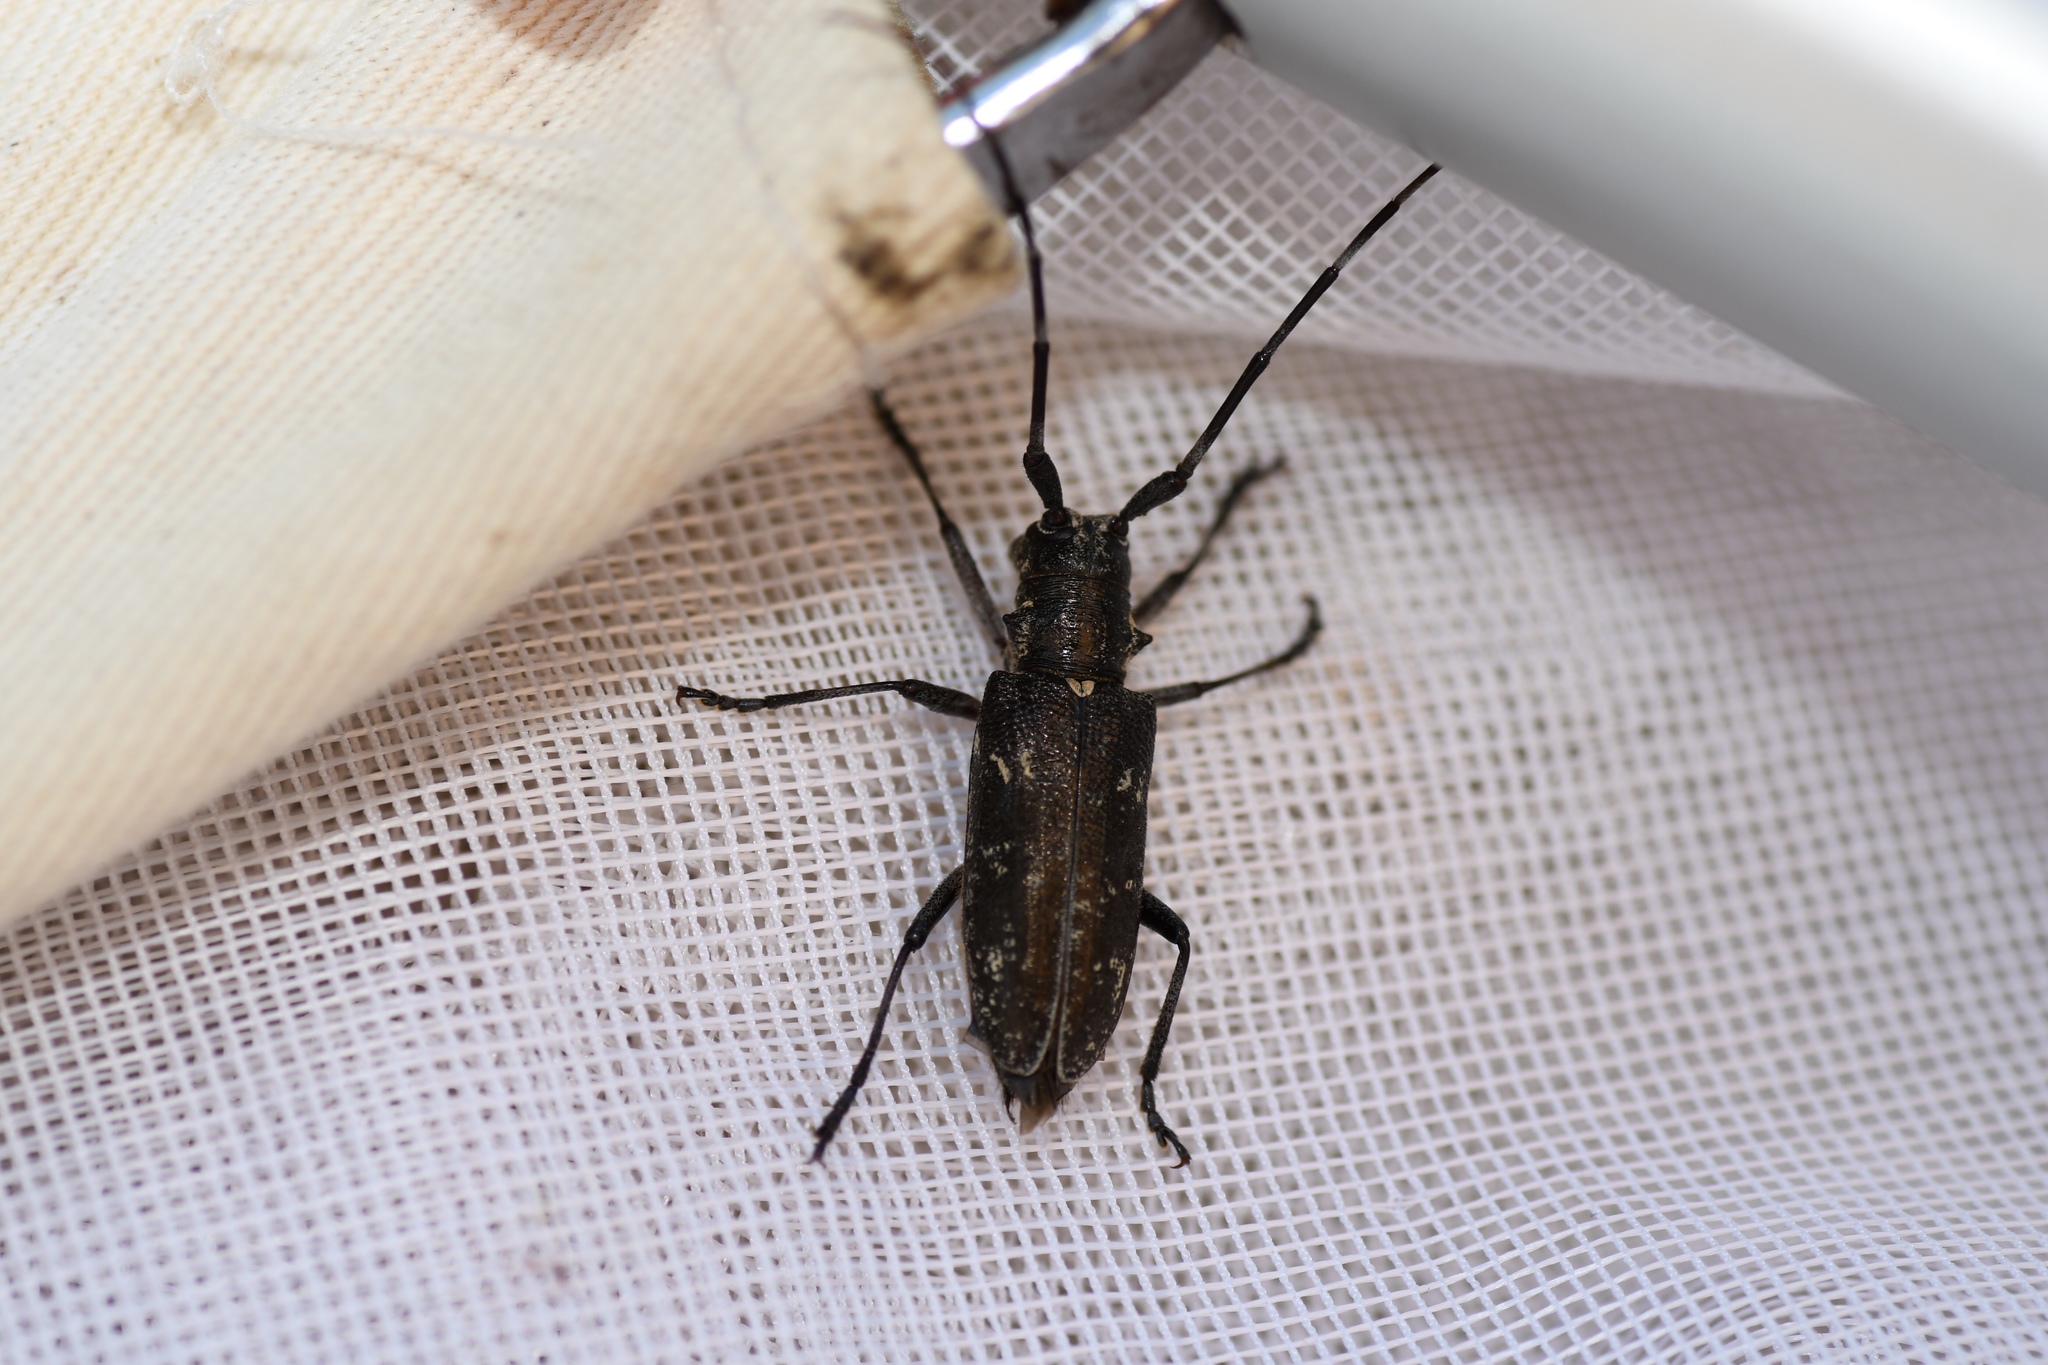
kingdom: Animalia
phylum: Arthropoda
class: Insecta
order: Coleoptera
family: Cerambycidae
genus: Monochamus
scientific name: Monochamus scutellatus
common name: White-spotted sawyer beetle
